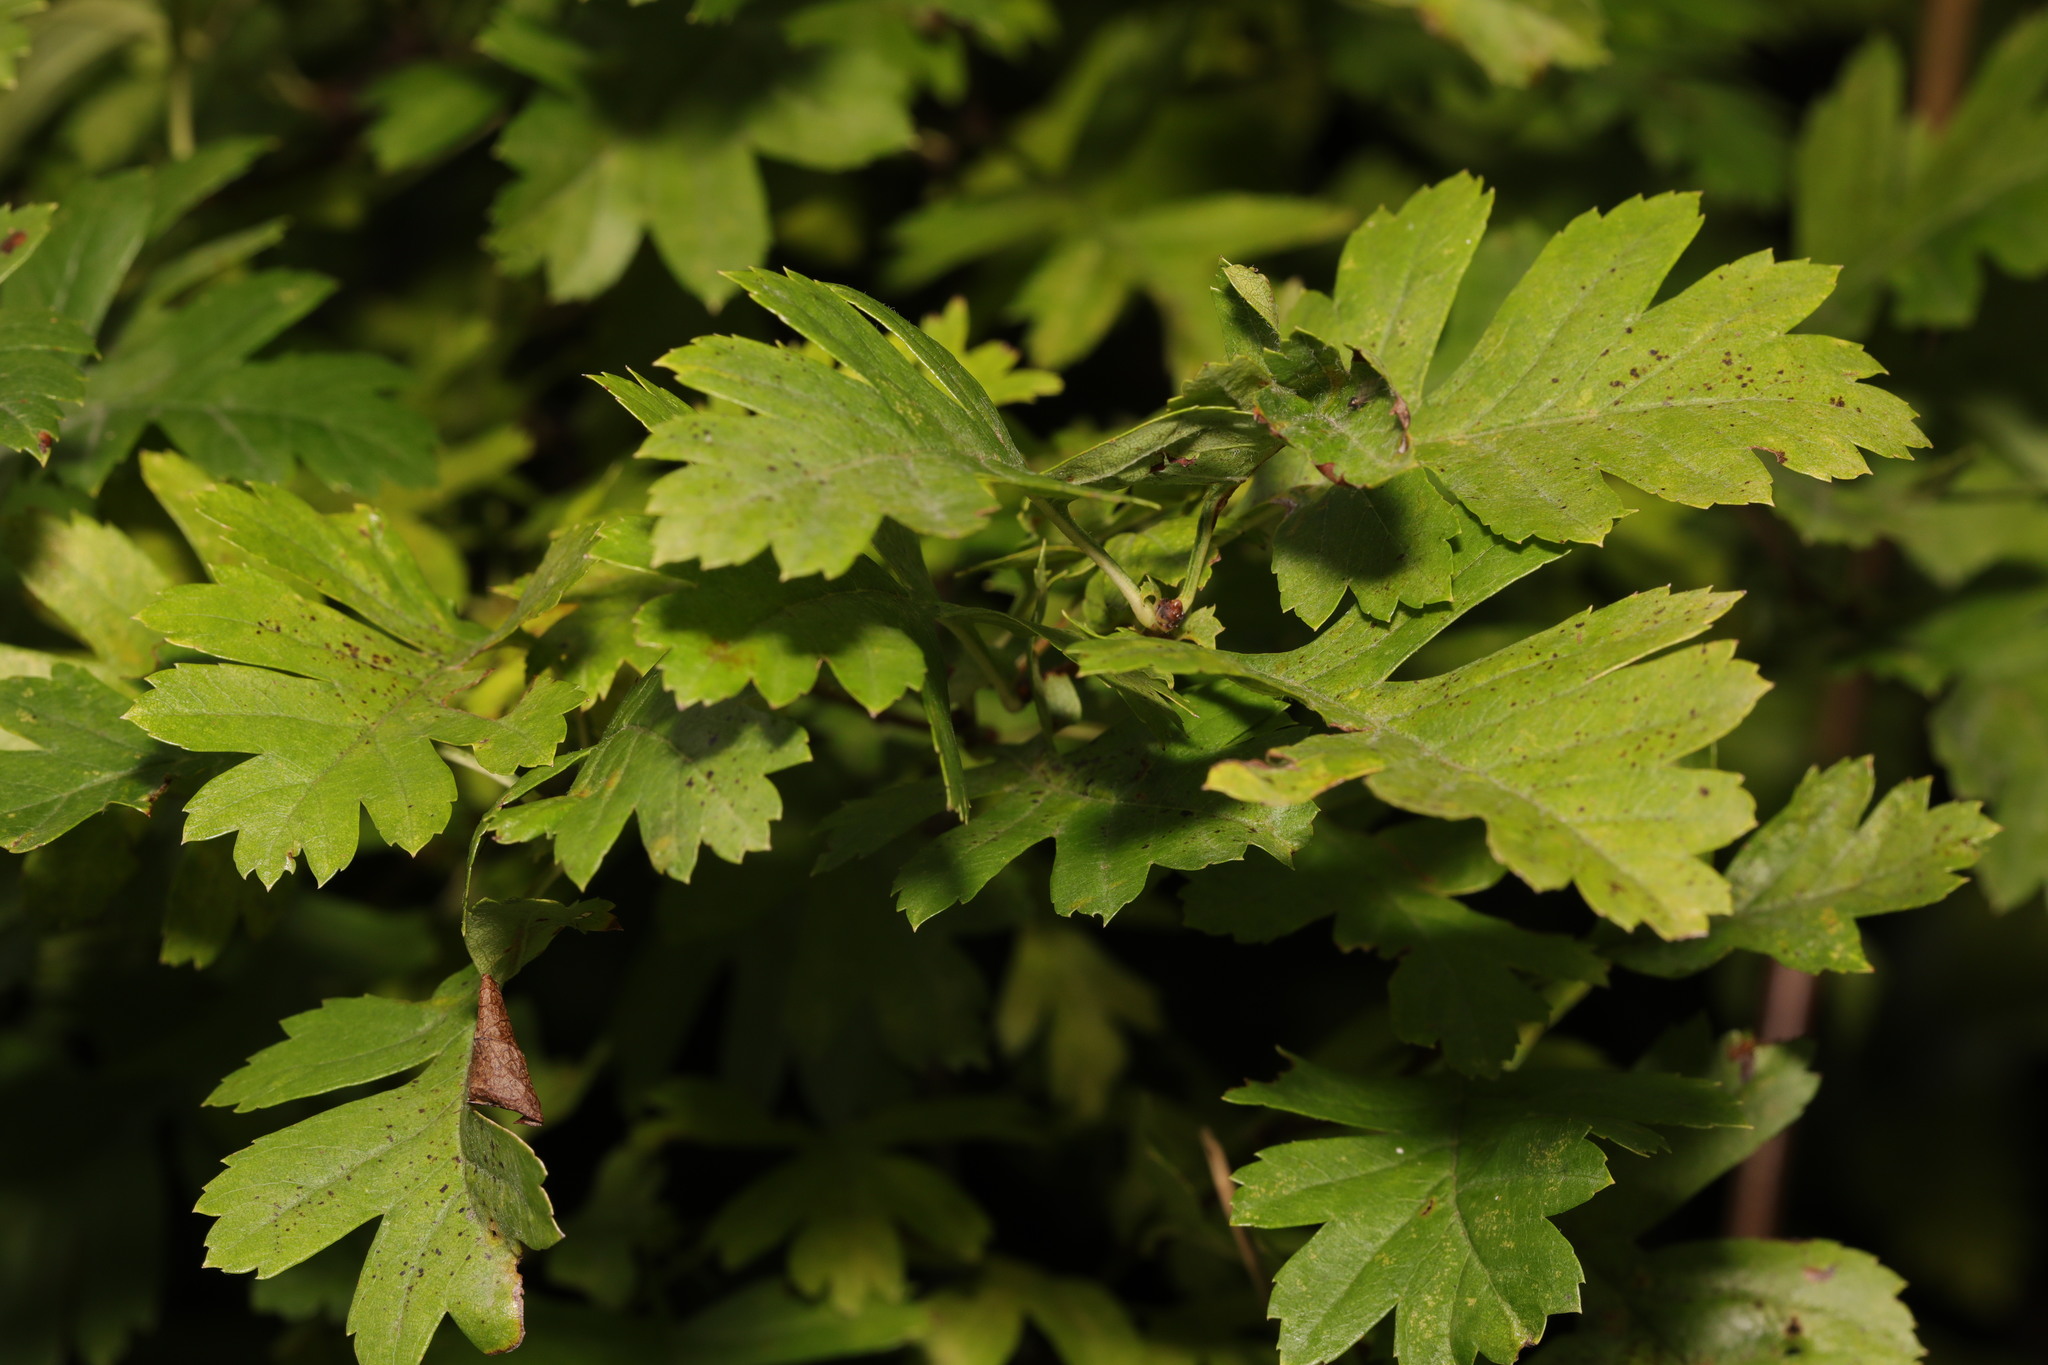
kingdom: Plantae
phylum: Tracheophyta
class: Magnoliopsida
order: Rosales
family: Rosaceae
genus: Crataegus
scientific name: Crataegus monogyna
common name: Hawthorn
